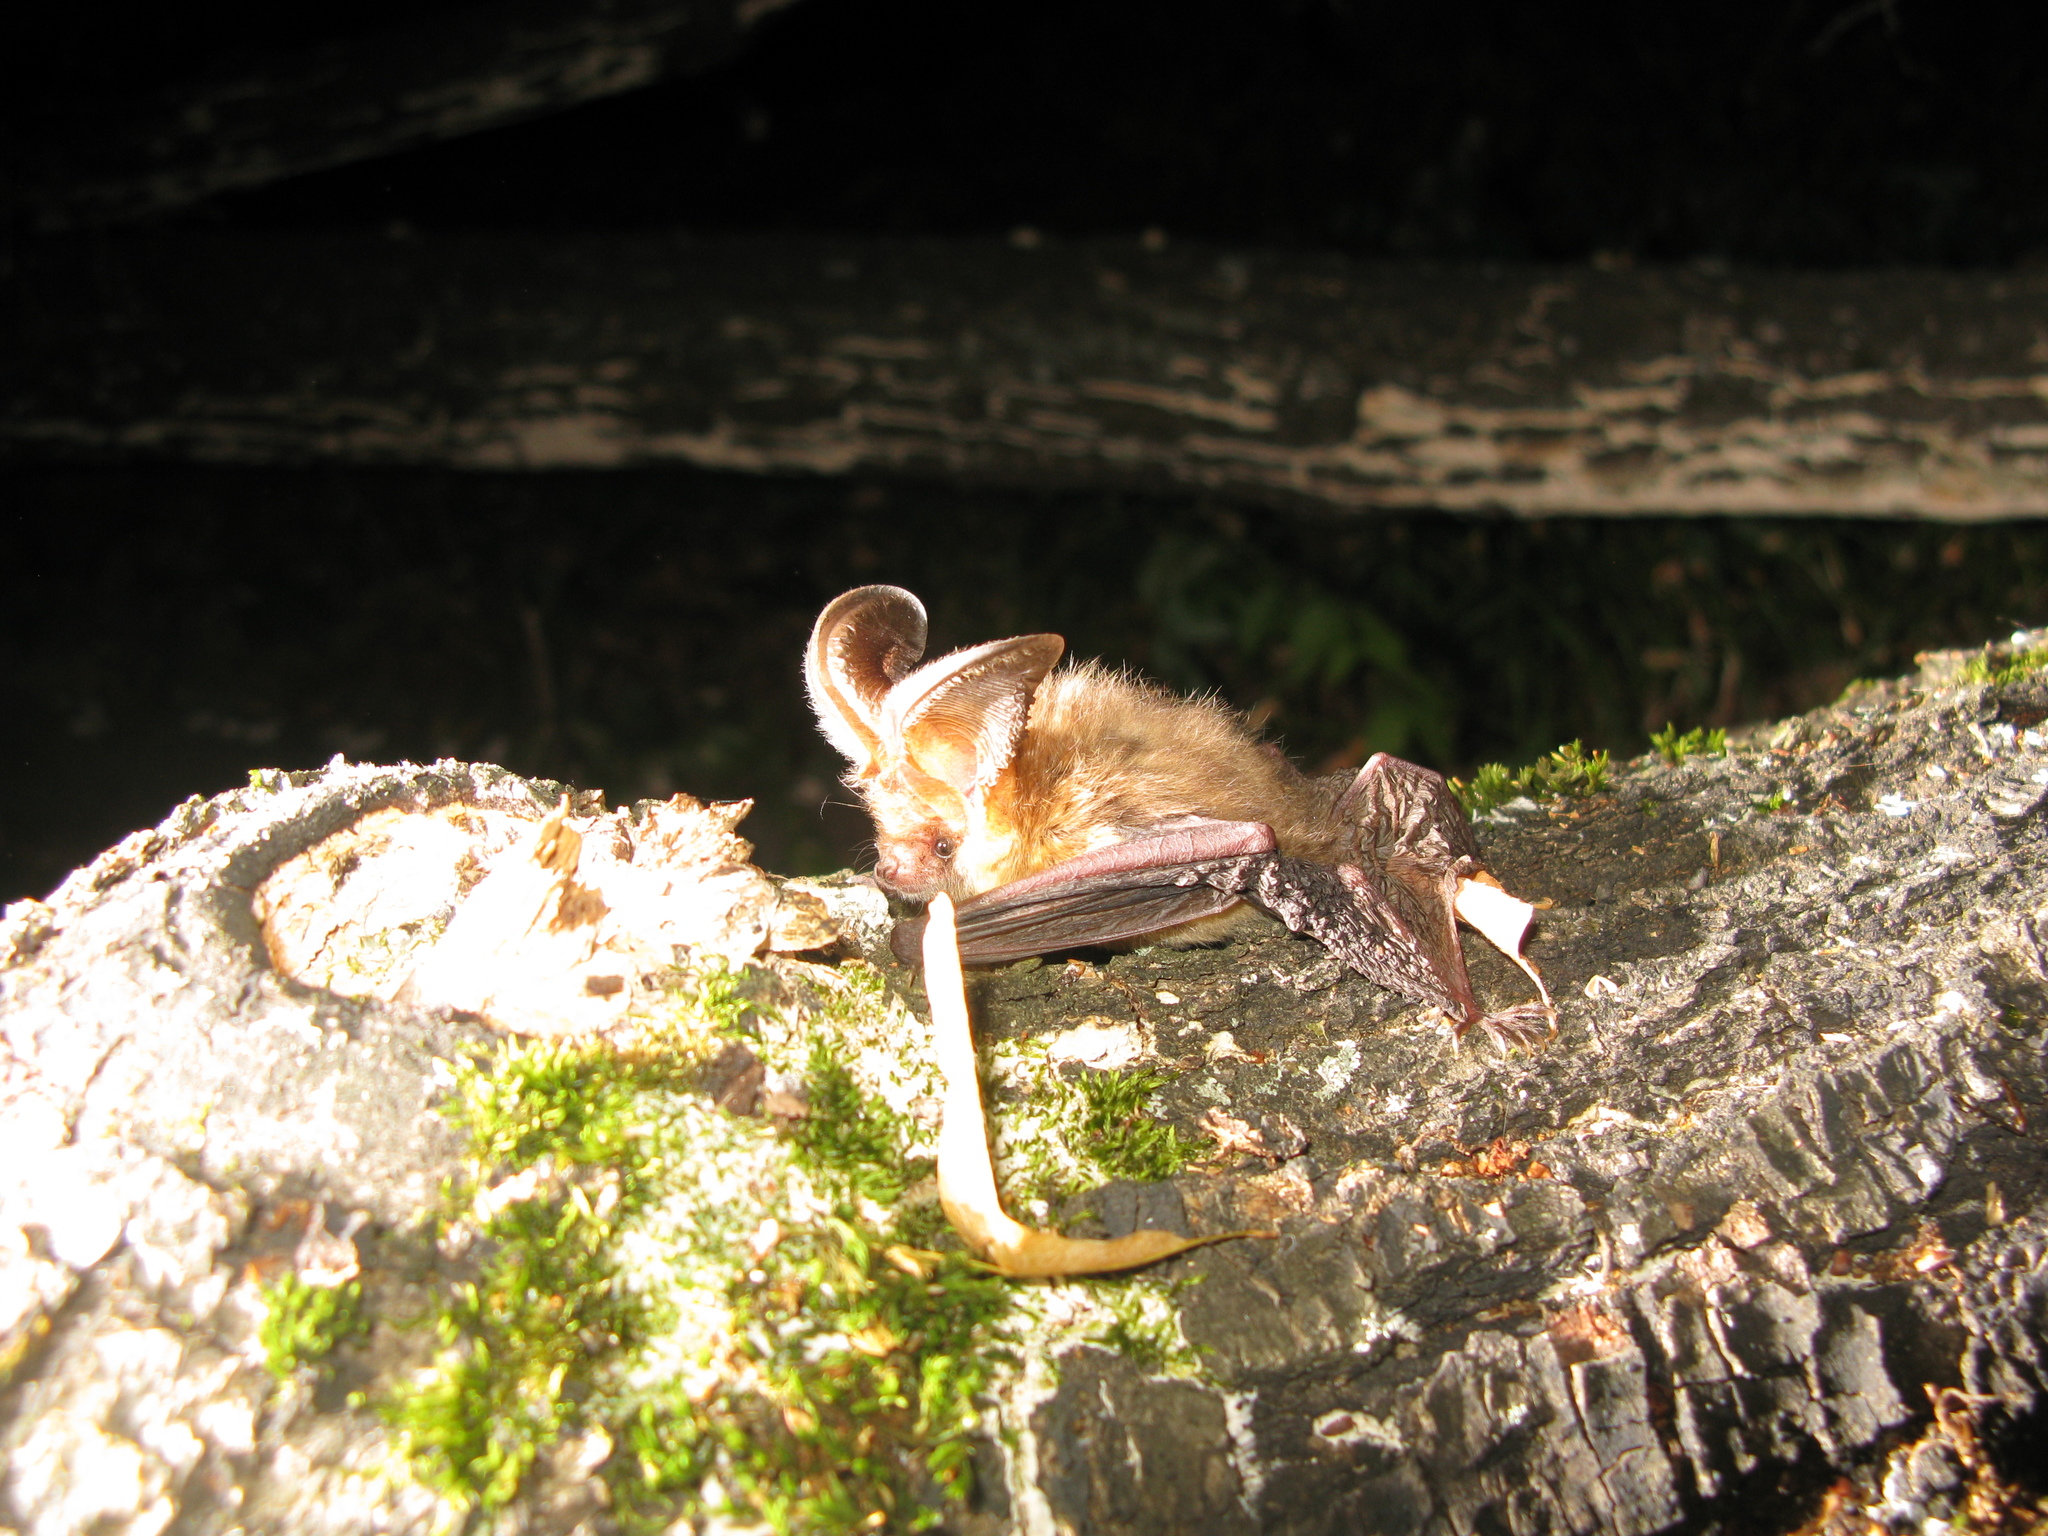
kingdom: Animalia
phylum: Chordata
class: Mammalia
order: Chiroptera
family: Vespertilionidae
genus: Plecotus
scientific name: Plecotus auritus
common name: Brown long-eared bat
